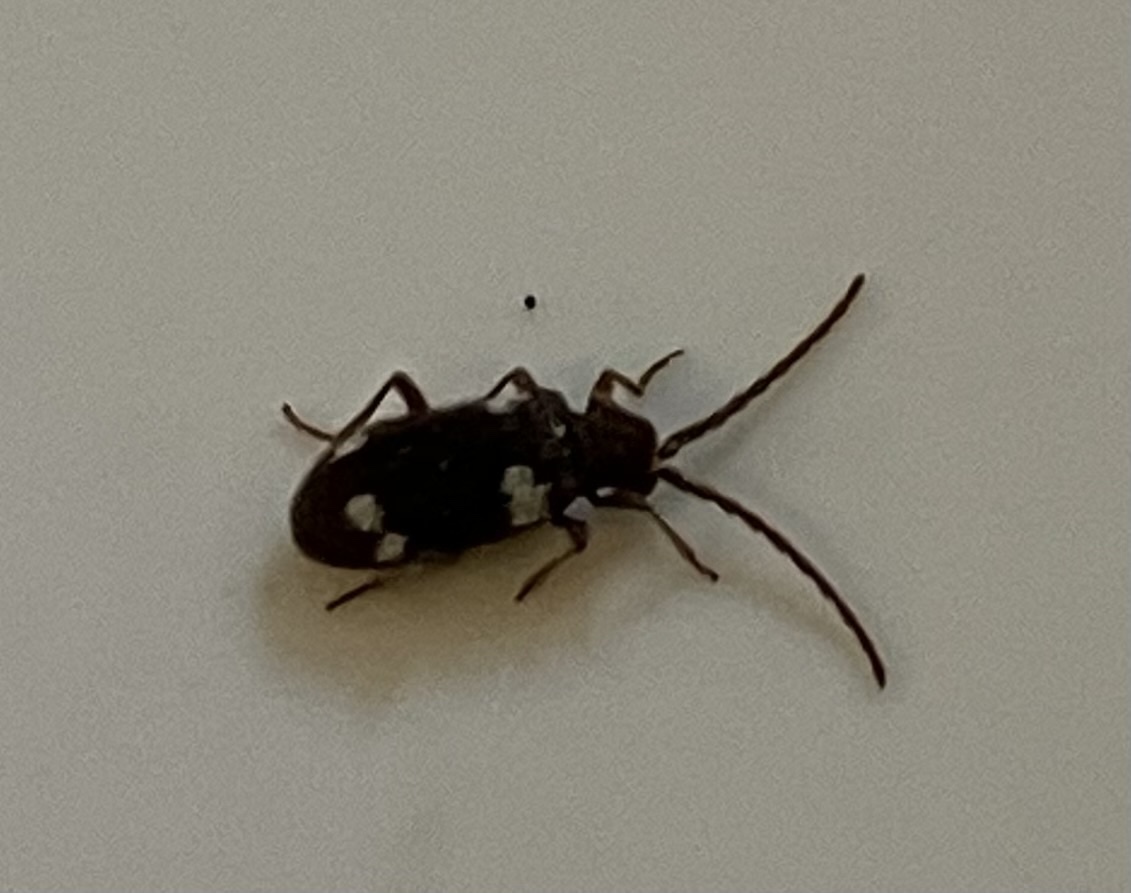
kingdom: Animalia
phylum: Arthropoda
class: Insecta
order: Coleoptera
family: Ptinidae
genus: Ptinus
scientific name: Ptinus sexpunctatus
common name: Six-spotted spider beetle
